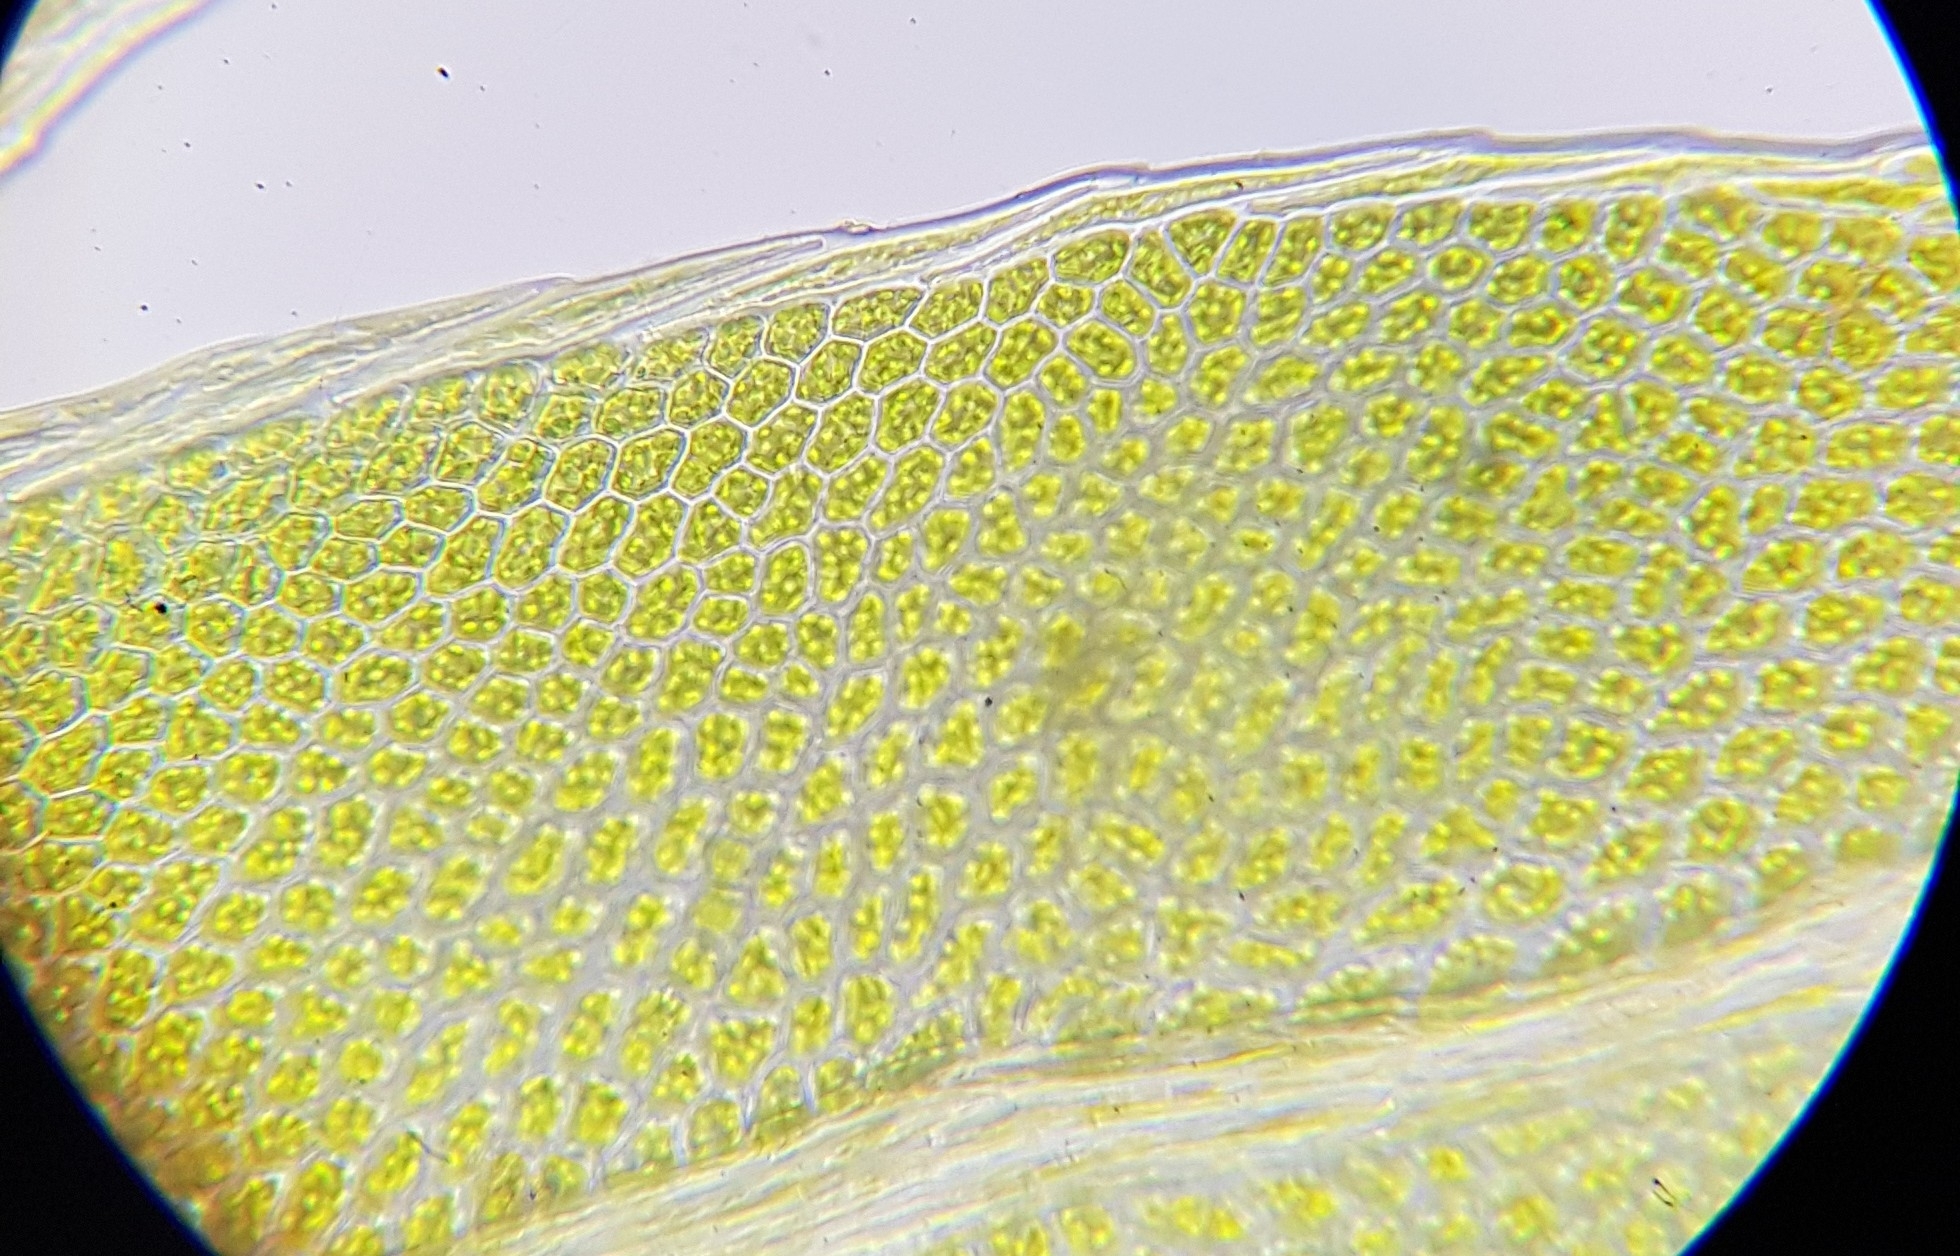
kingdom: Plantae
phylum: Bryophyta
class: Bryopsida
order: Dicranales
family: Fissidentaceae
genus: Fissidens
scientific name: Fissidens viridulus
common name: Green pocket-moss
